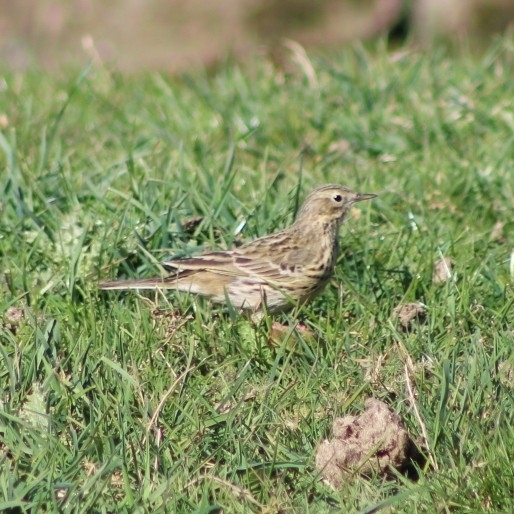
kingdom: Animalia
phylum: Chordata
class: Aves
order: Passeriformes
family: Motacillidae
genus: Anthus
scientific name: Anthus pratensis
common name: Meadow pipit
